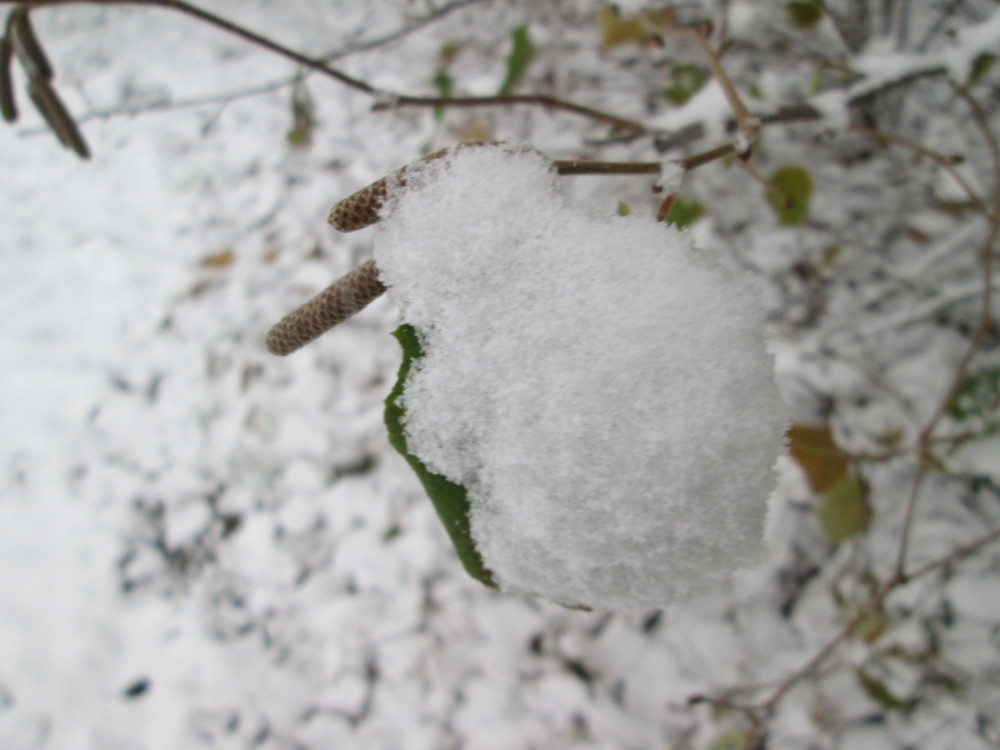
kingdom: Plantae
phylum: Tracheophyta
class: Magnoliopsida
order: Fagales
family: Betulaceae
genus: Corylus
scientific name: Corylus avellana
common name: European hazel
